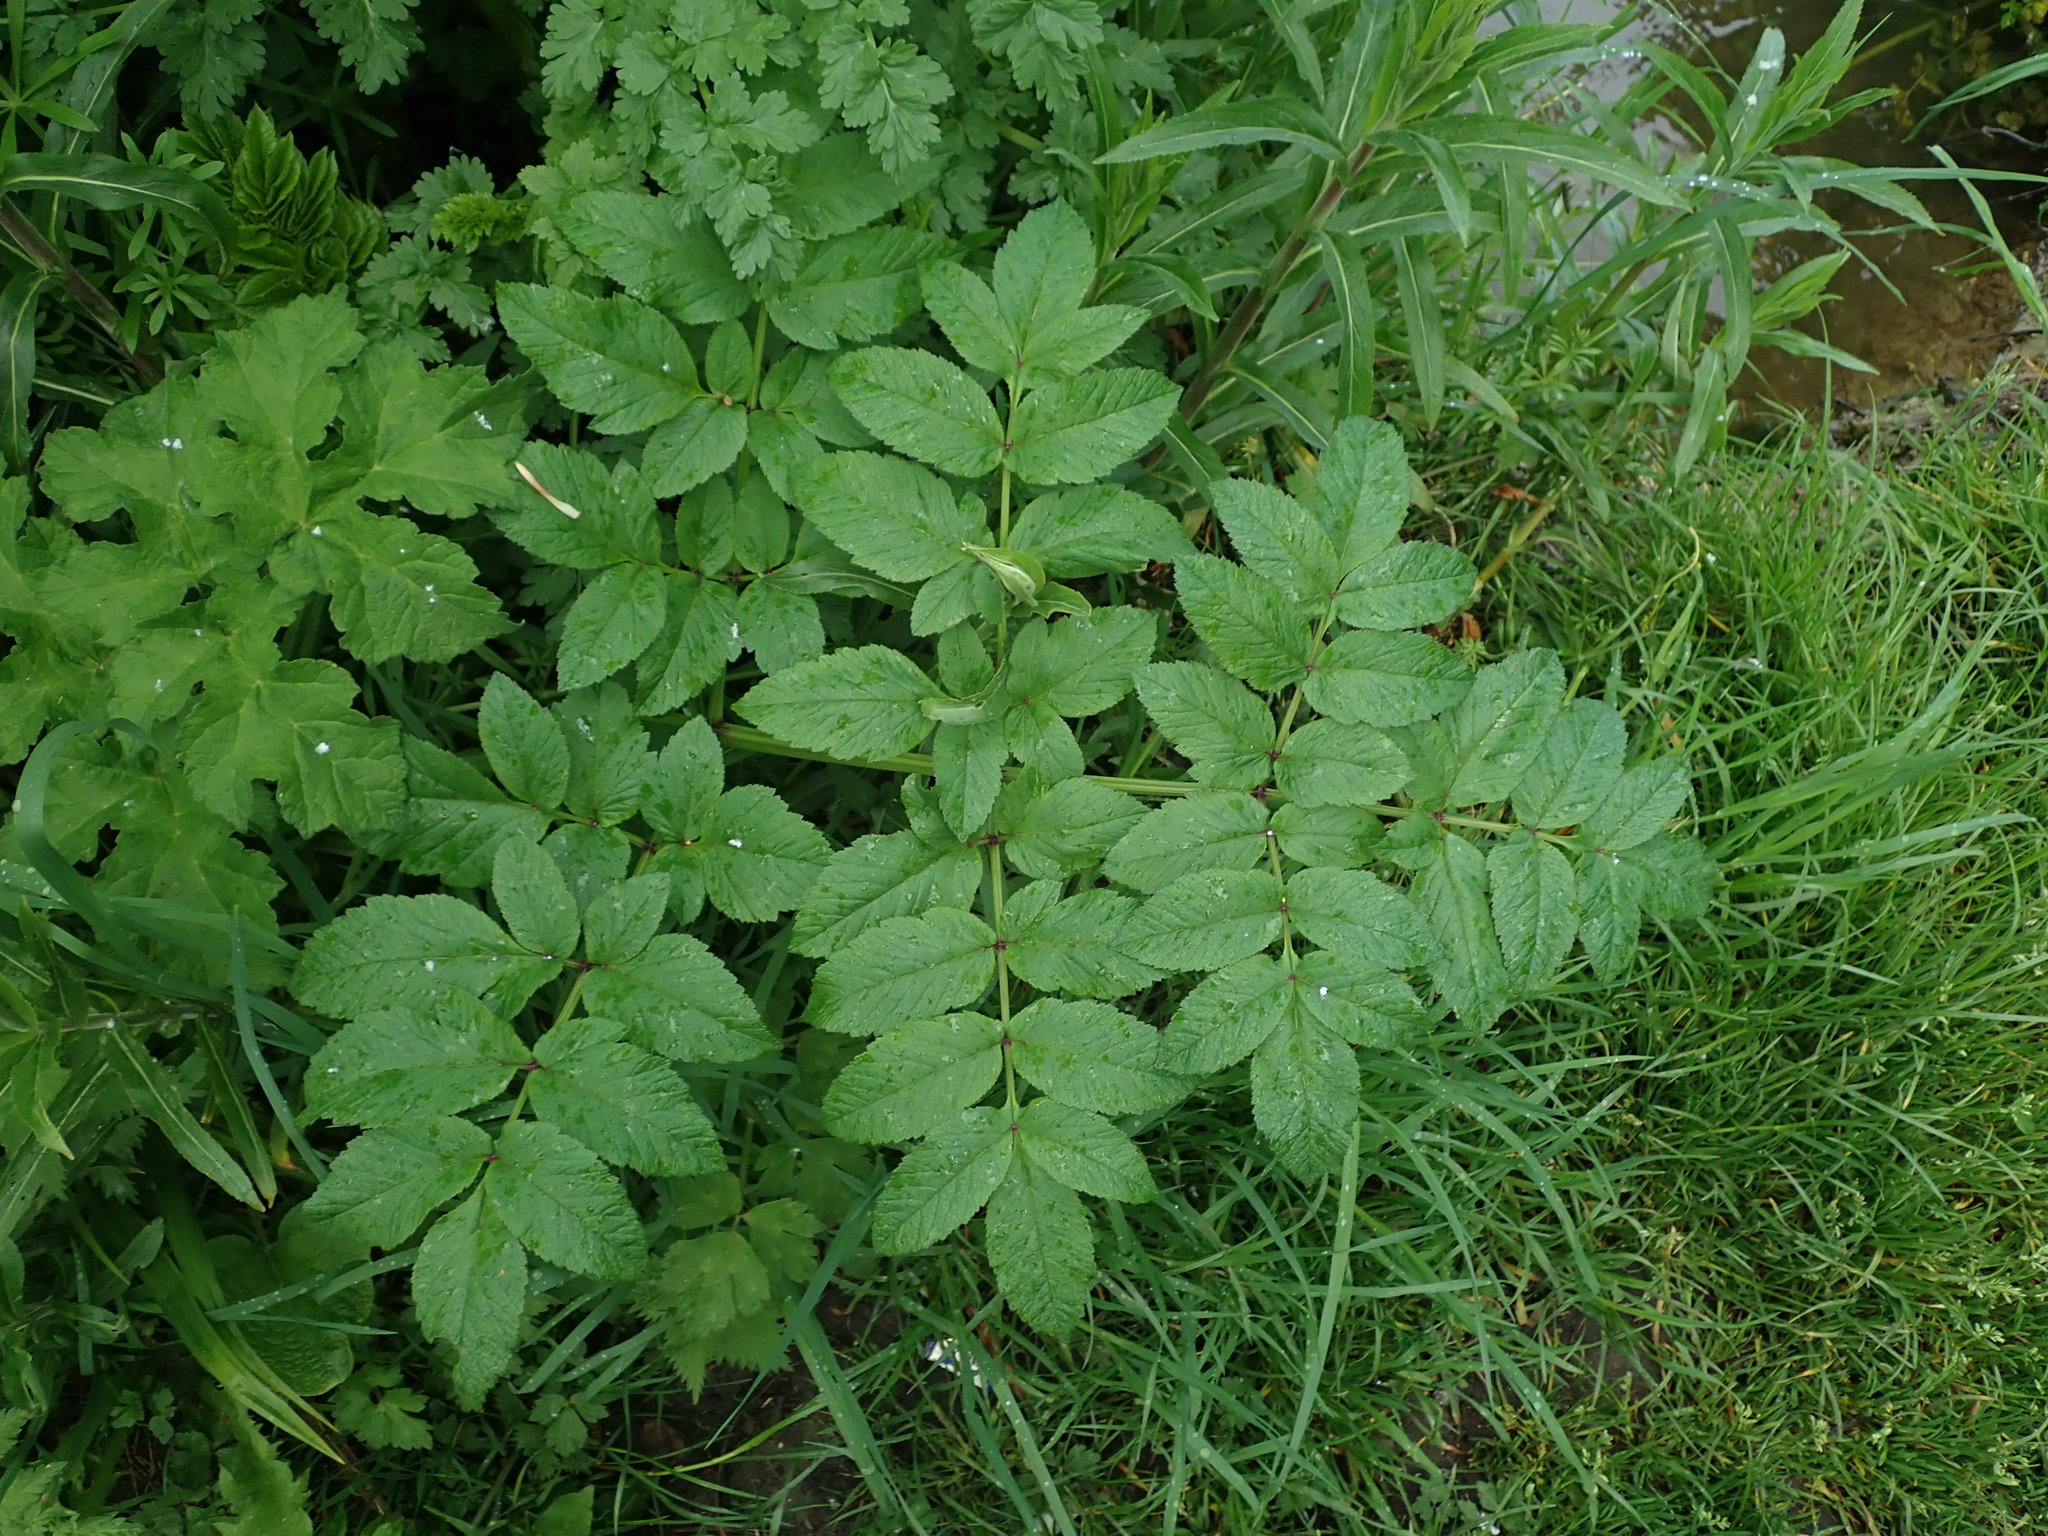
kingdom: Plantae
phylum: Tracheophyta
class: Magnoliopsida
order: Apiales
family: Apiaceae
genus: Angelica
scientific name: Angelica sylvestris
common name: Wild angelica
